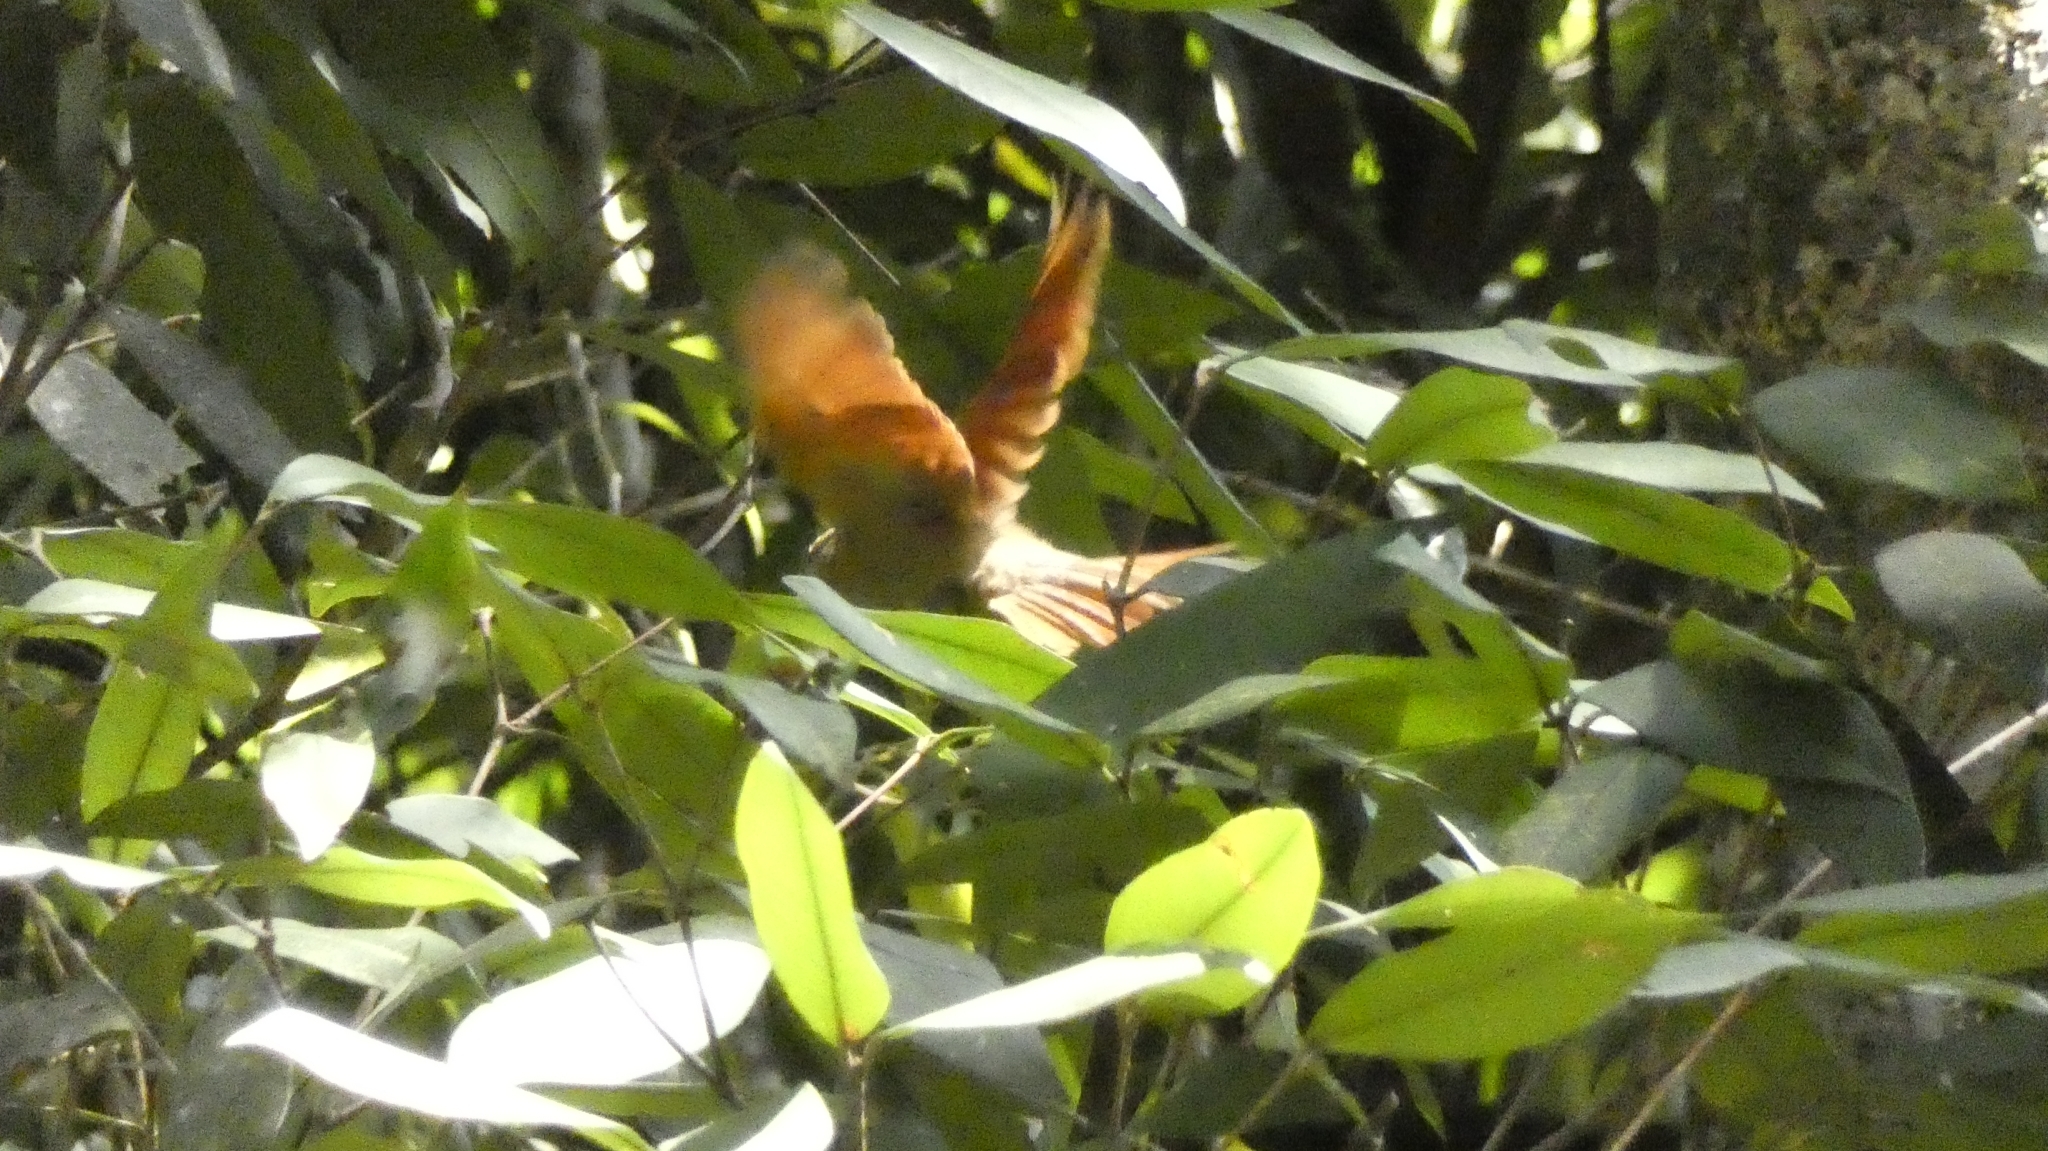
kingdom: Animalia
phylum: Chordata
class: Aves
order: Passeriformes
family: Furnariidae
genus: Philydor
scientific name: Philydor rufum
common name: Buff-fronted foliage-gleaner
